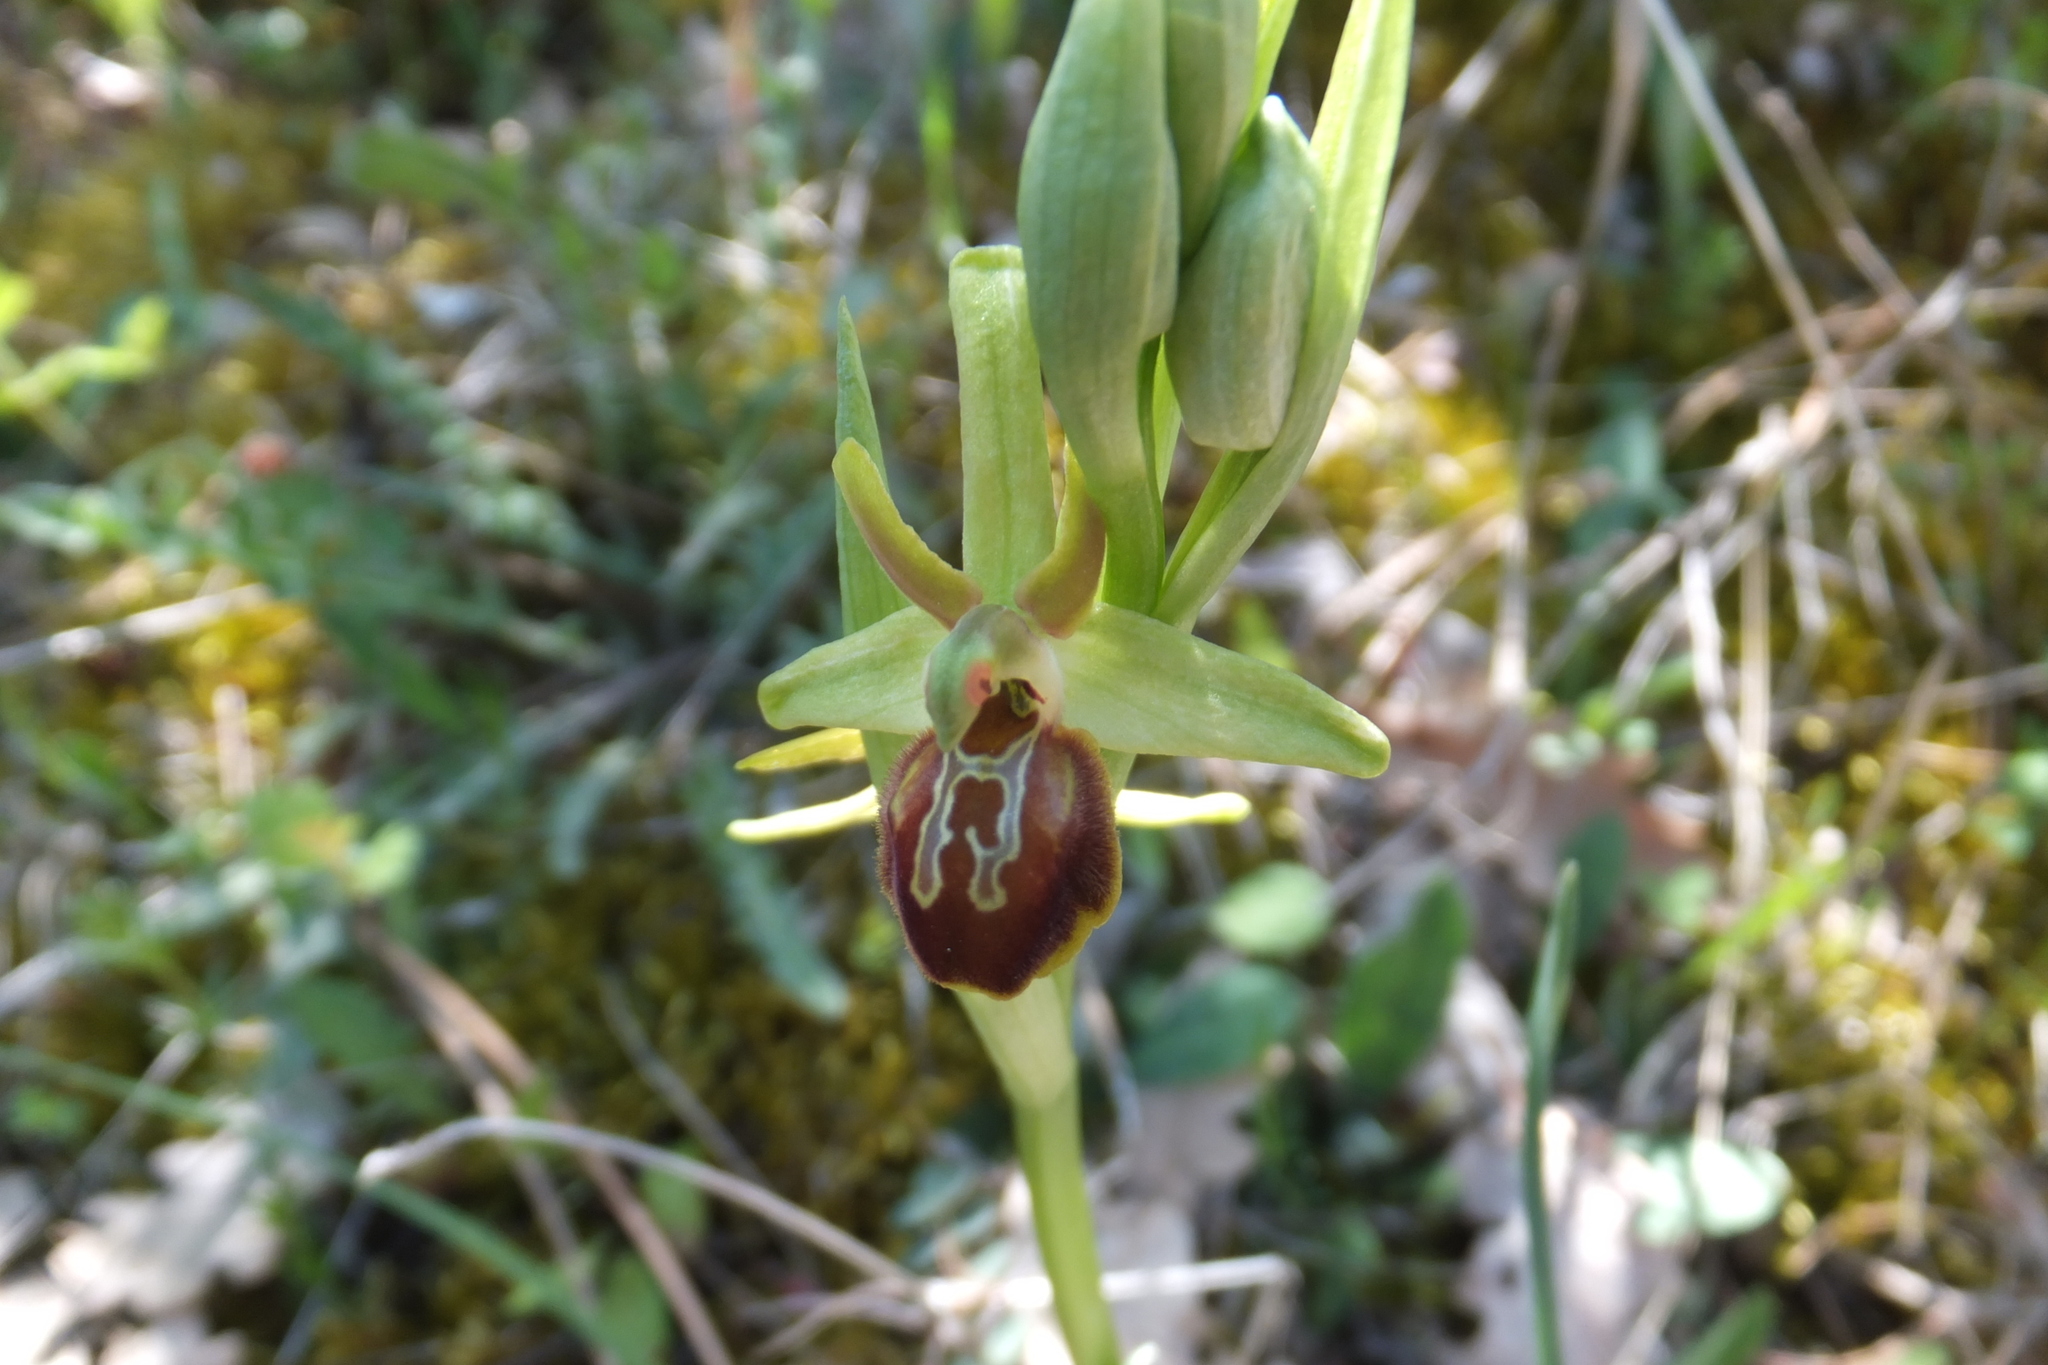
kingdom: Plantae
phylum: Tracheophyta
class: Liliopsida
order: Asparagales
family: Orchidaceae
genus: Ophrys
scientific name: Ophrys sphegodes
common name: Early spider-orchid
